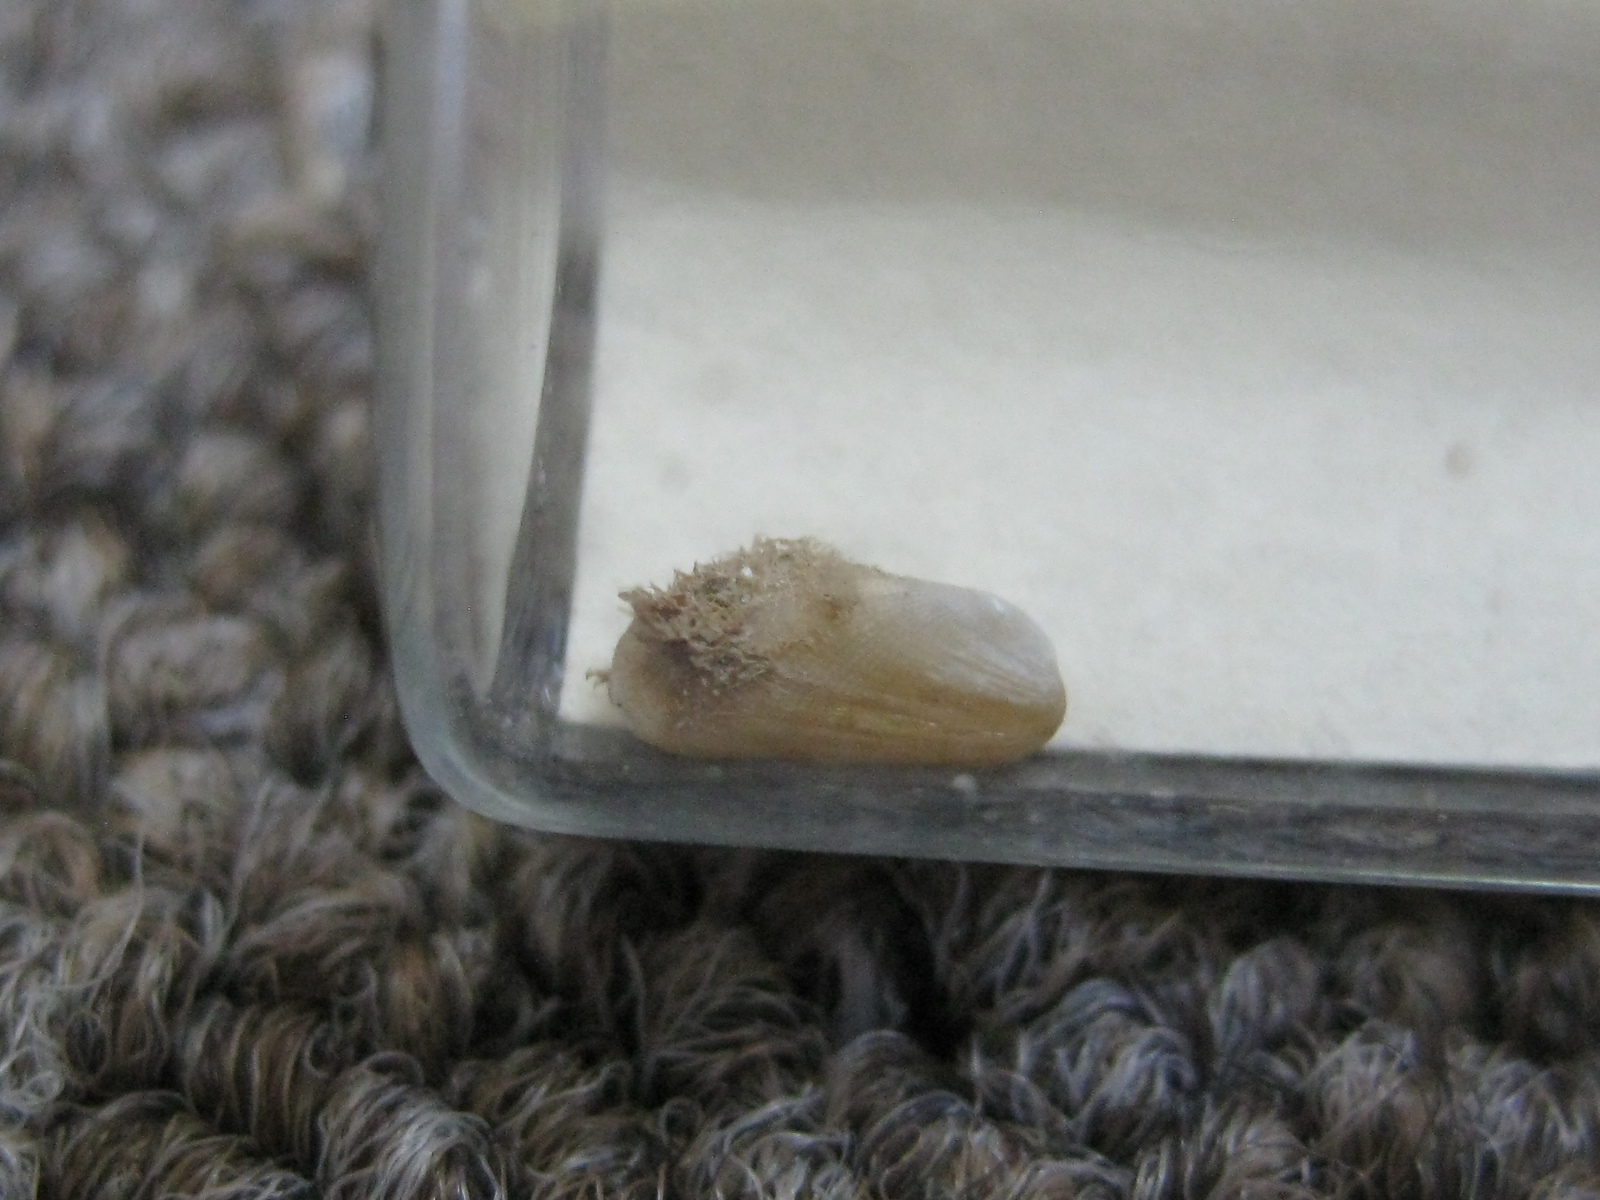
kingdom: Animalia
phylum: Mollusca
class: Bivalvia
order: Mytilida
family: Mytilidae
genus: Gregariella
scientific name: Gregariella barbata
